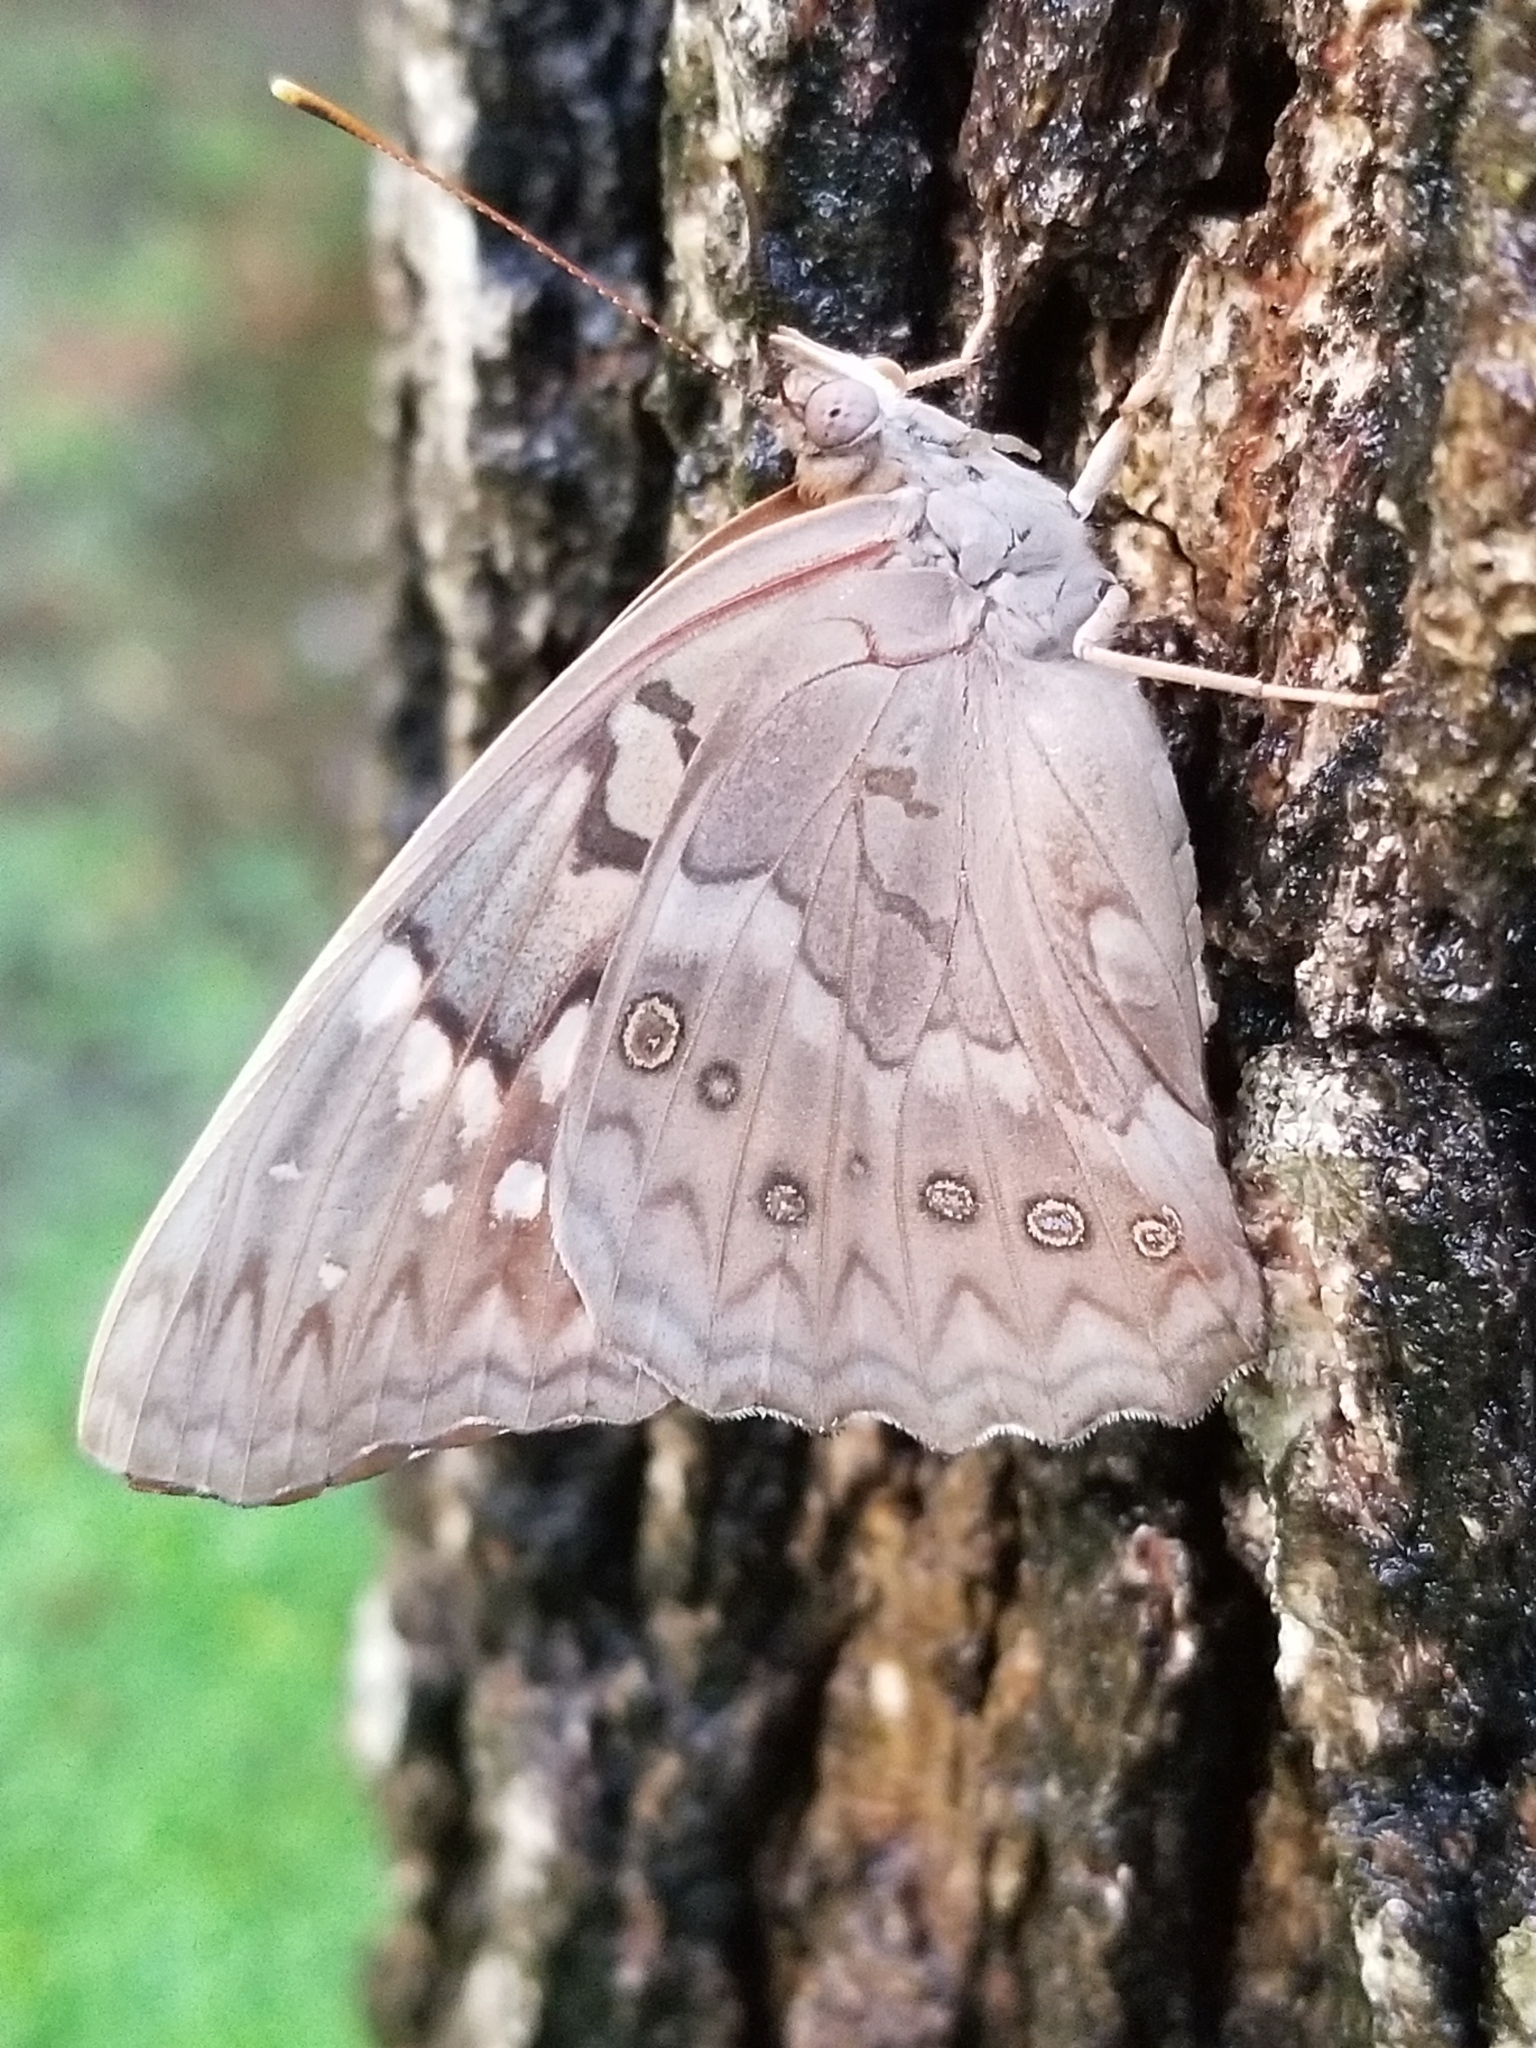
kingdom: Animalia
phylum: Arthropoda
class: Insecta
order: Lepidoptera
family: Nymphalidae
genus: Asterocampa
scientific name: Asterocampa clyton
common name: Tawny emperor
